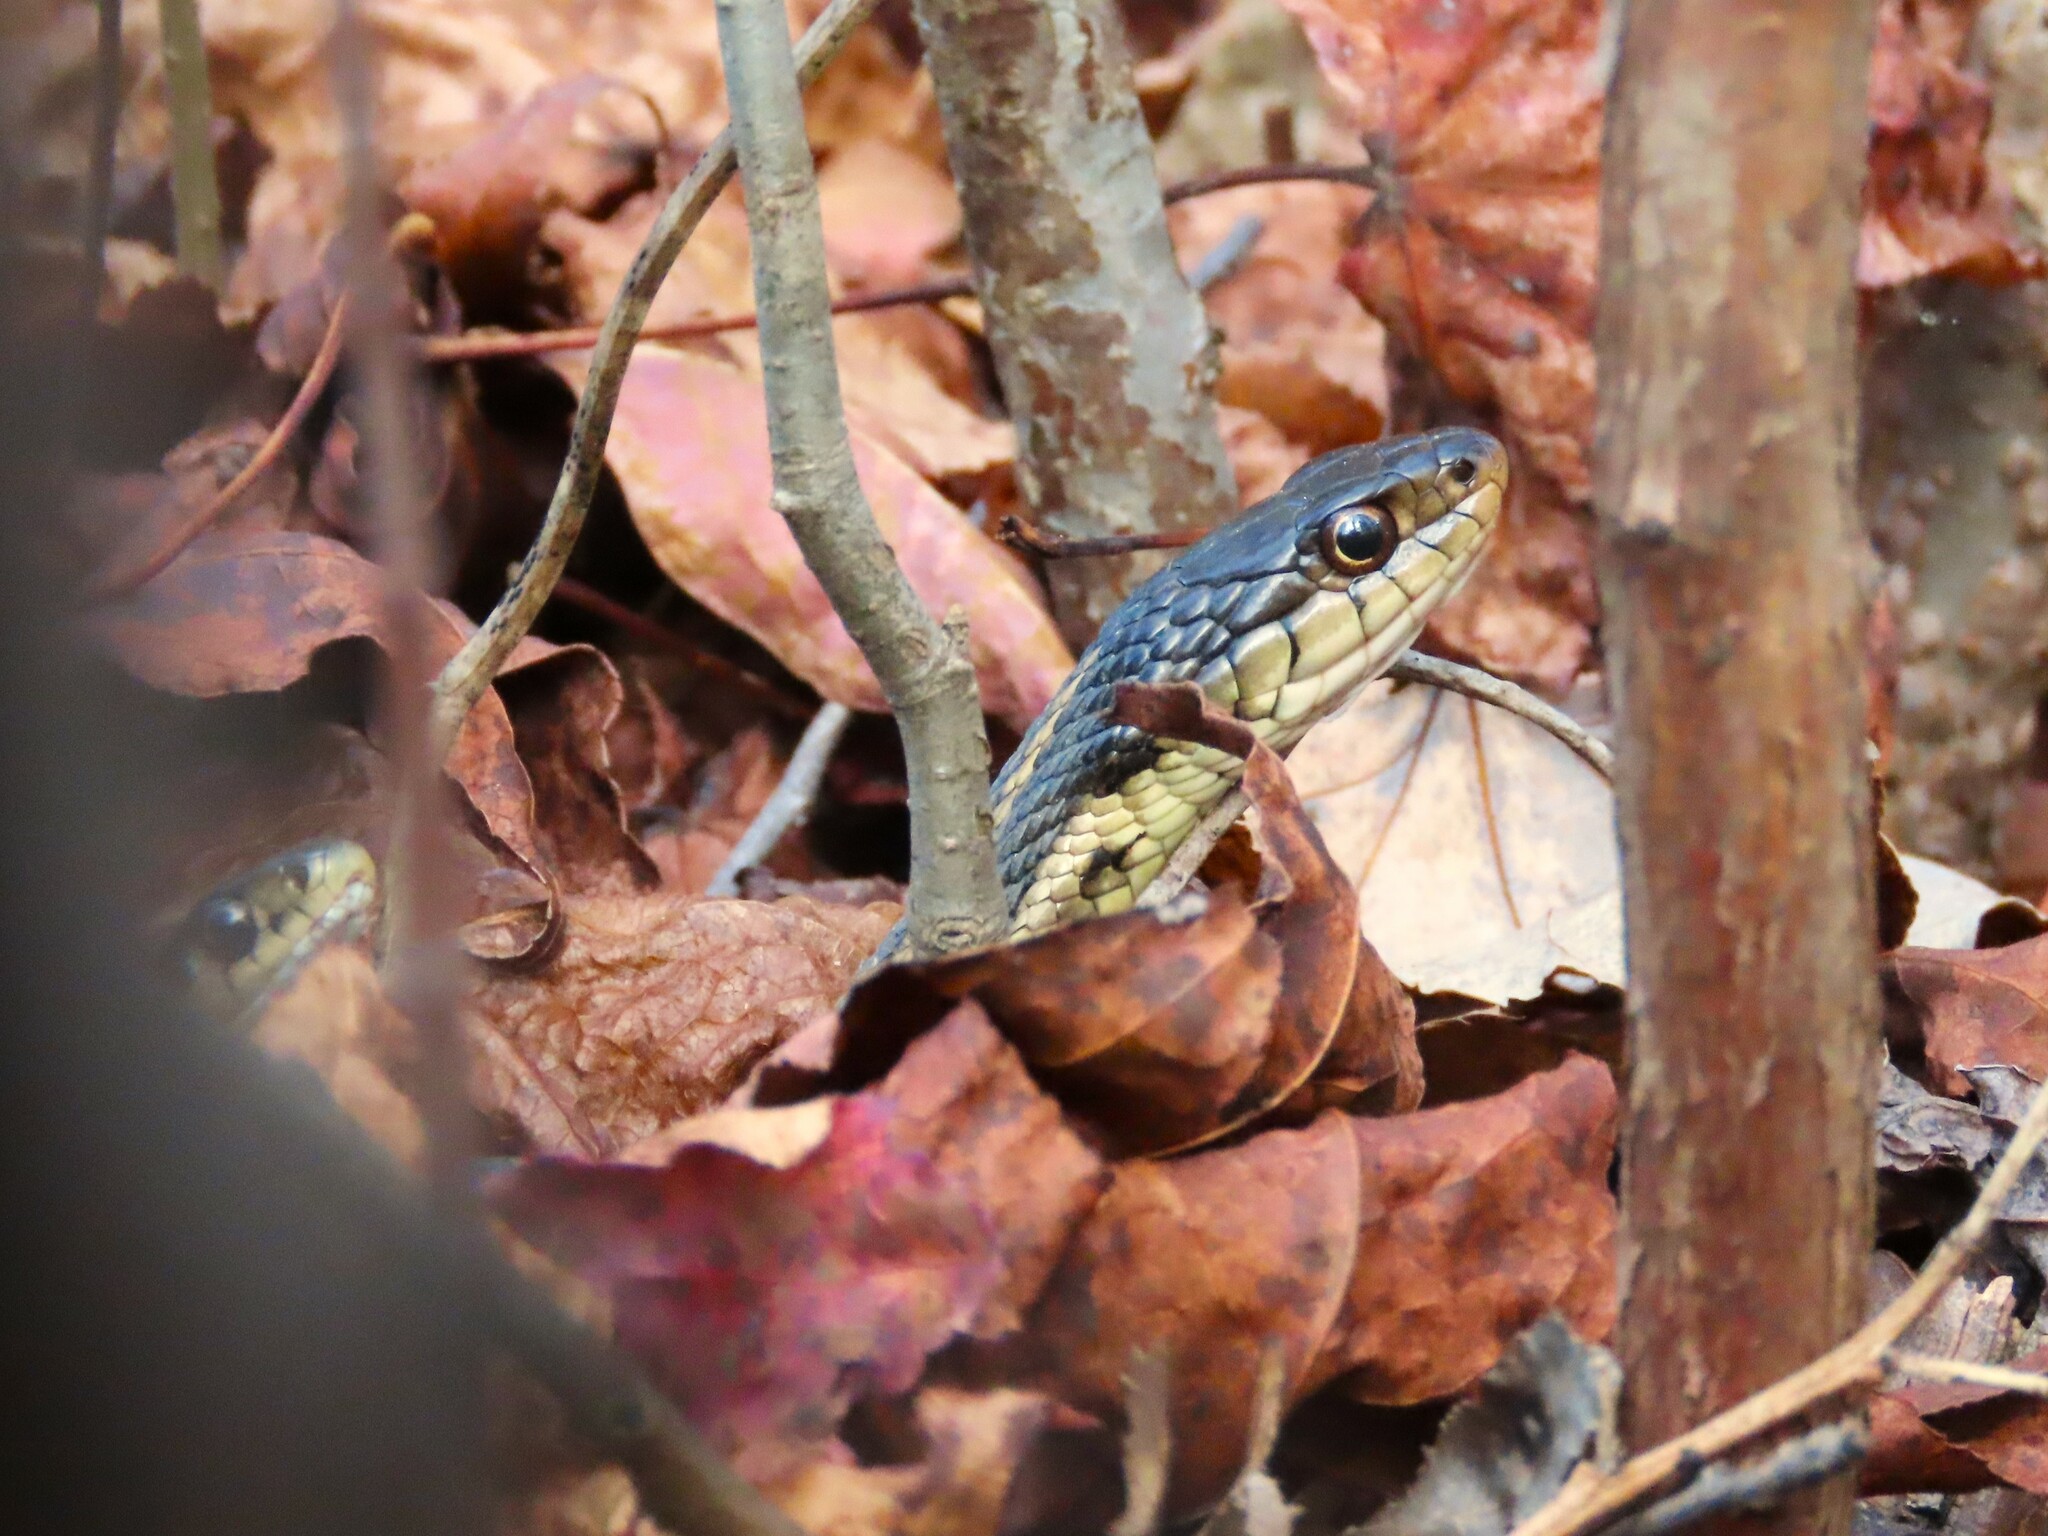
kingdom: Animalia
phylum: Chordata
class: Squamata
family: Colubridae
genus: Thamnophis
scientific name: Thamnophis sirtalis
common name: Common garter snake
